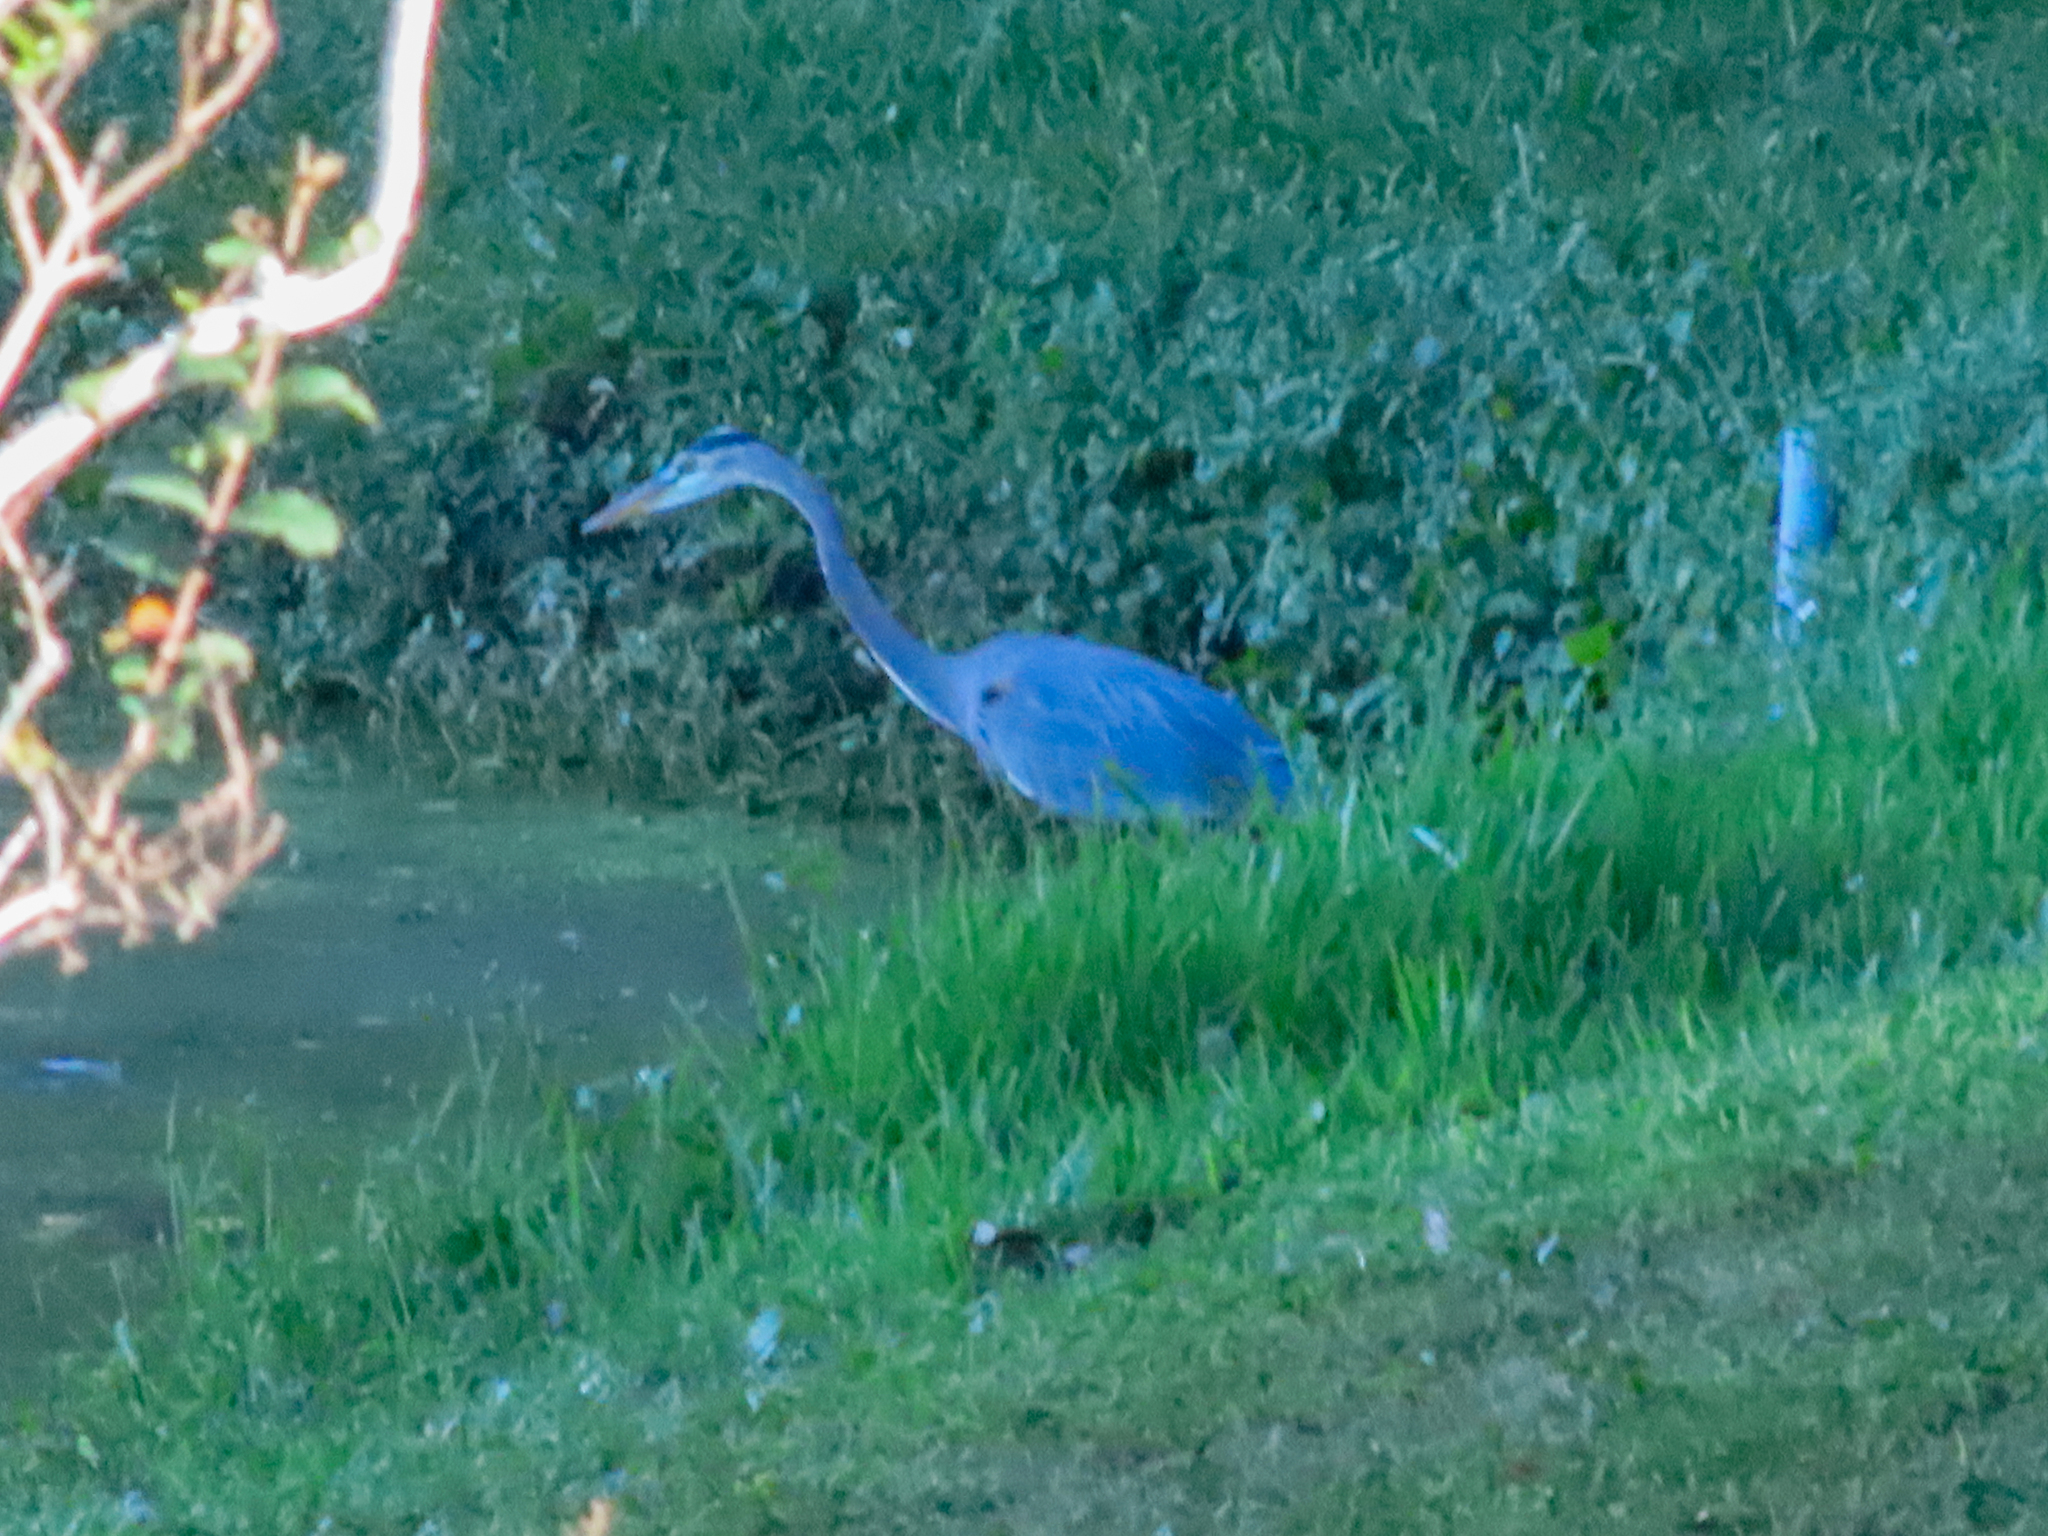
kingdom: Animalia
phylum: Chordata
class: Aves
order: Pelecaniformes
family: Ardeidae
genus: Ardea
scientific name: Ardea herodias
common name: Great blue heron
